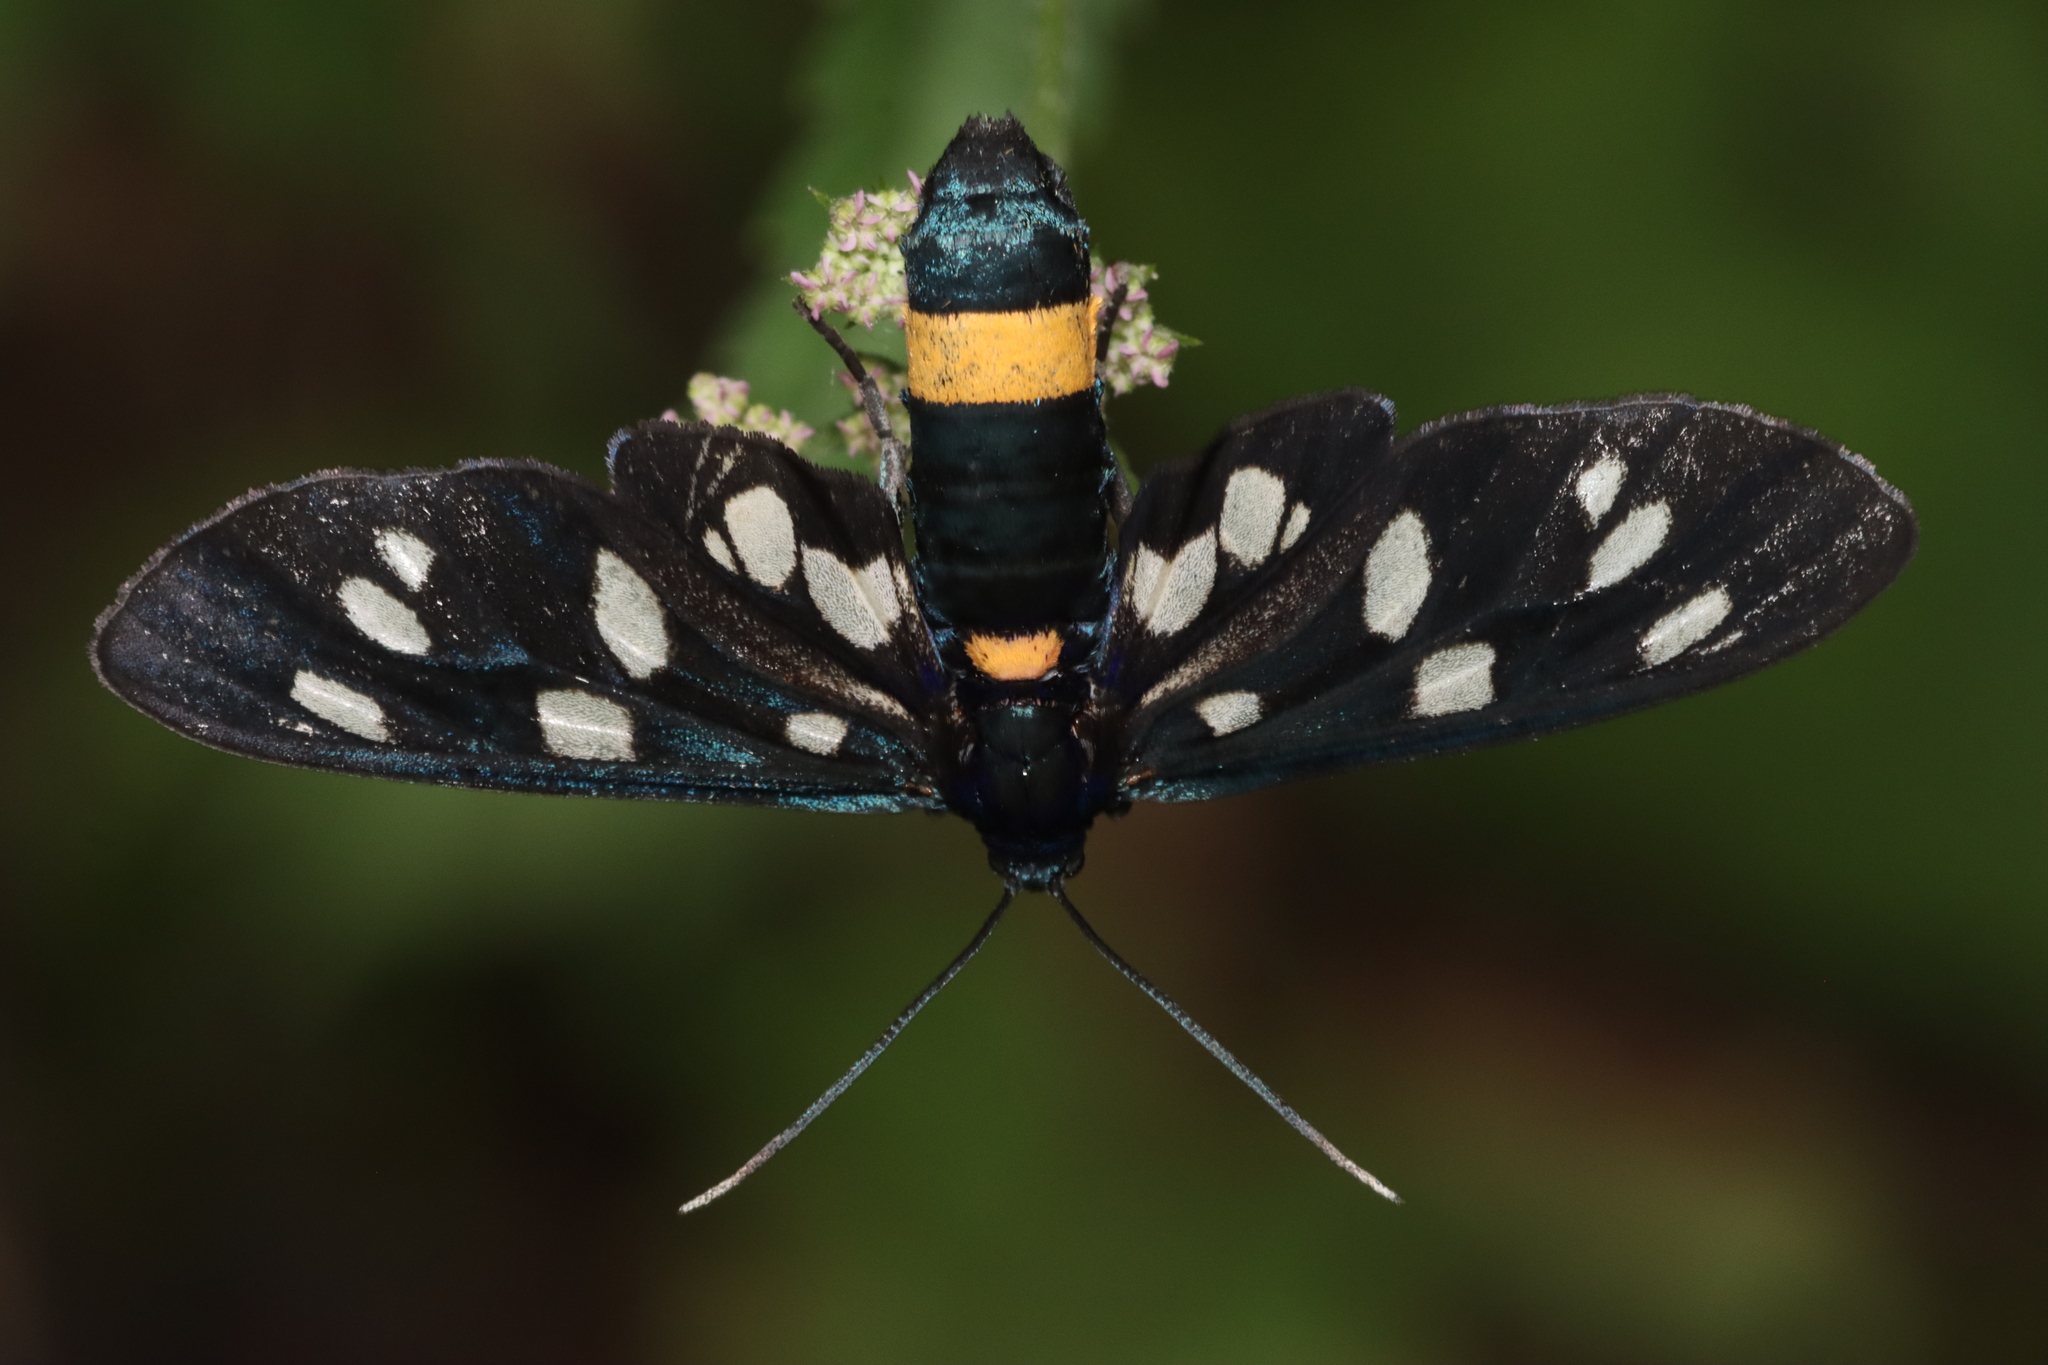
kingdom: Animalia
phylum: Arthropoda
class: Insecta
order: Lepidoptera
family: Erebidae
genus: Amata
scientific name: Amata phegea
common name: Nine-spotted
